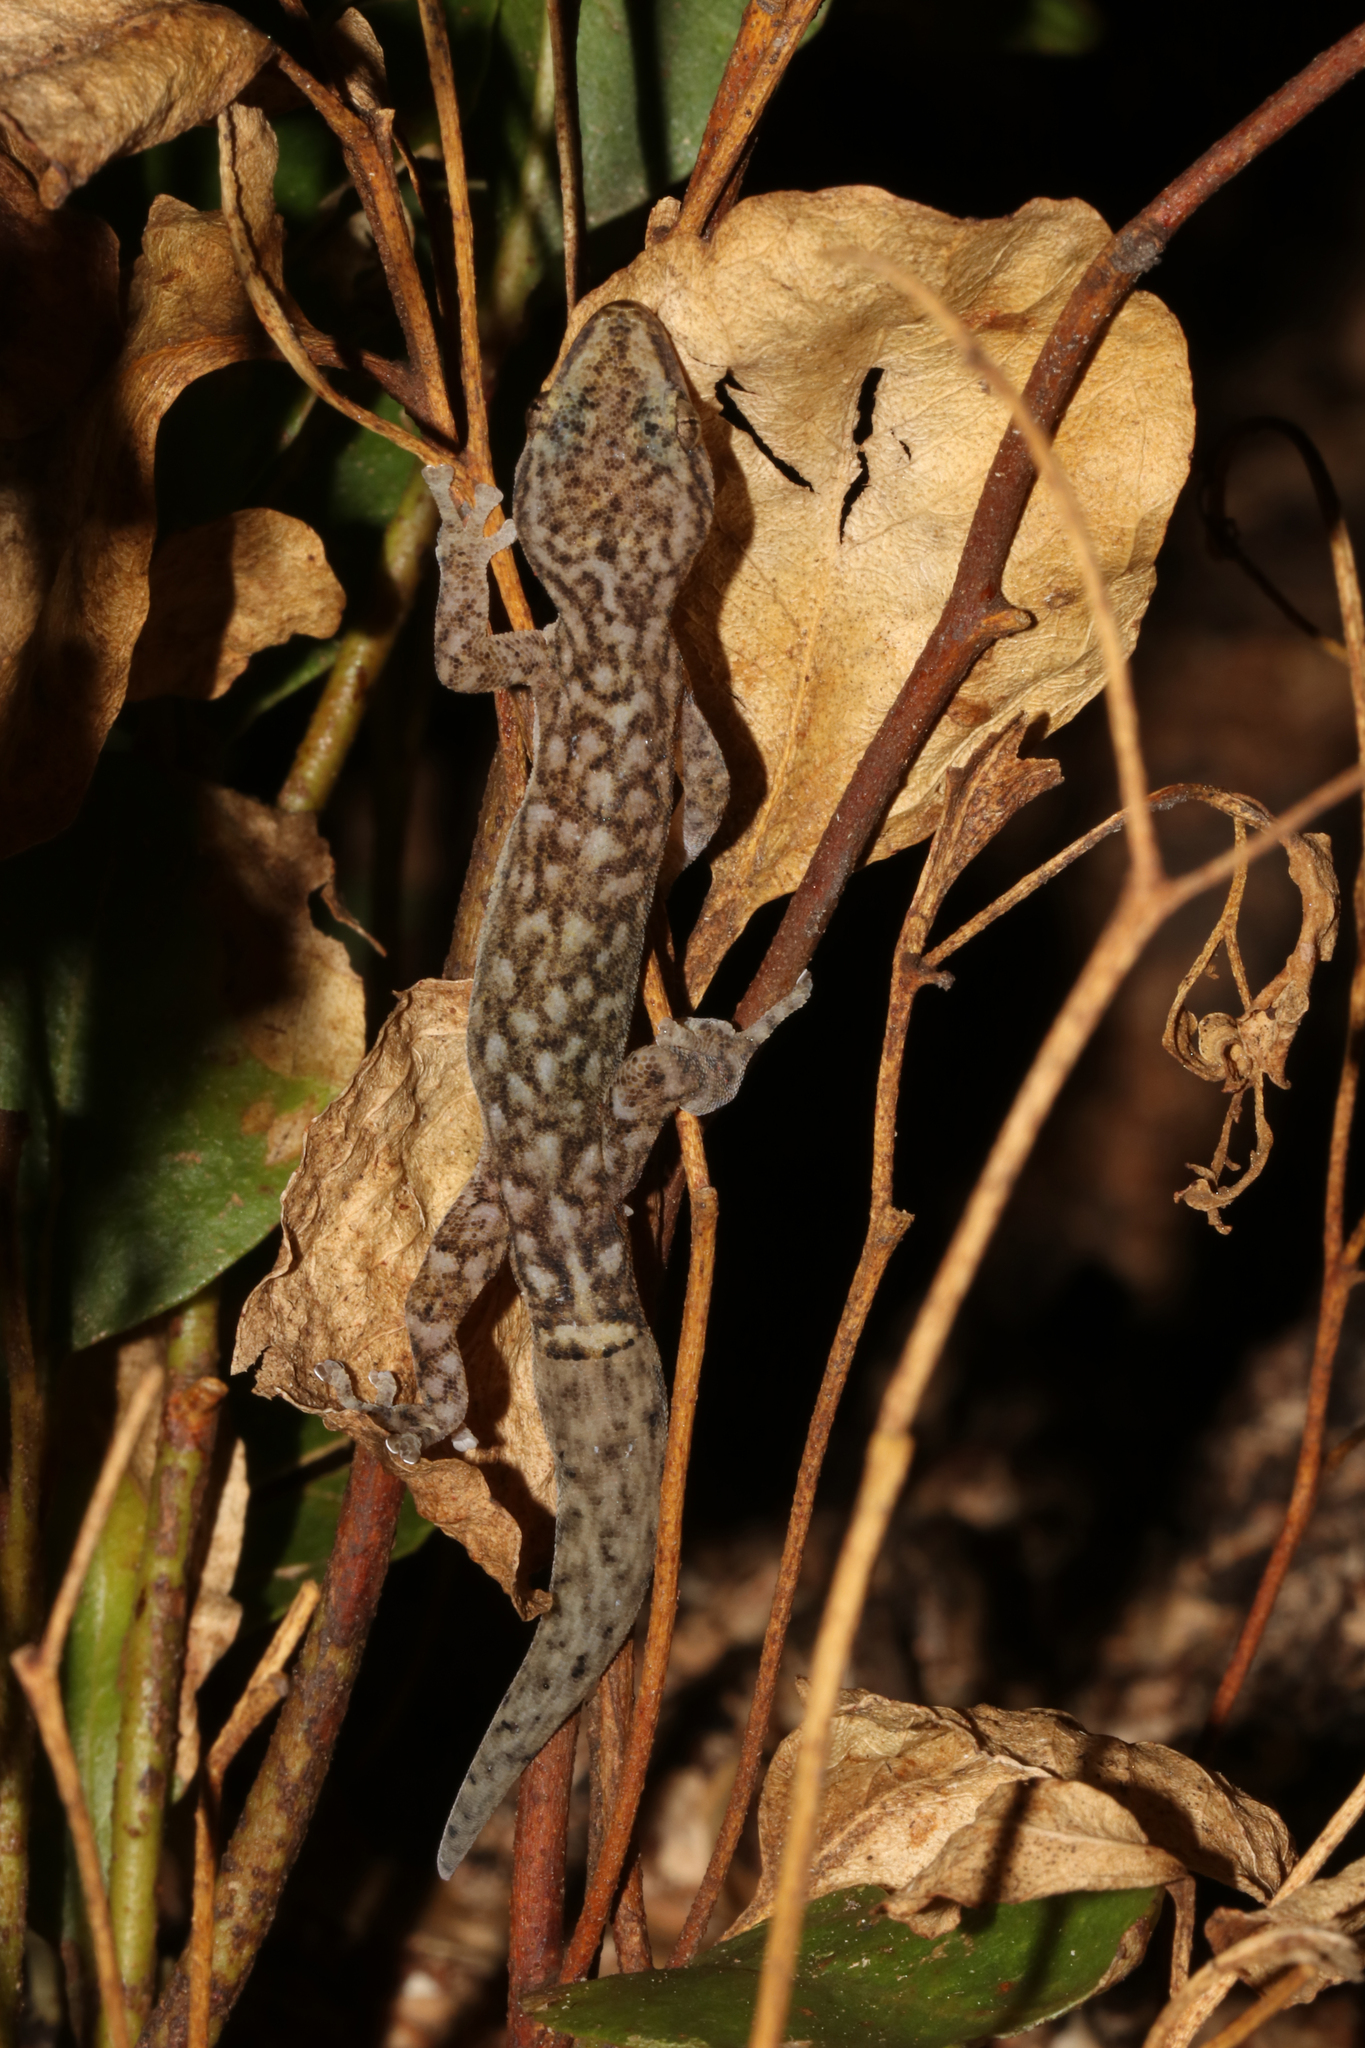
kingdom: Animalia
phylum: Chordata
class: Squamata
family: Gekkonidae
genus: Afrogecko
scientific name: Afrogecko porphyreus
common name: Marbled leaf-toed gecko
